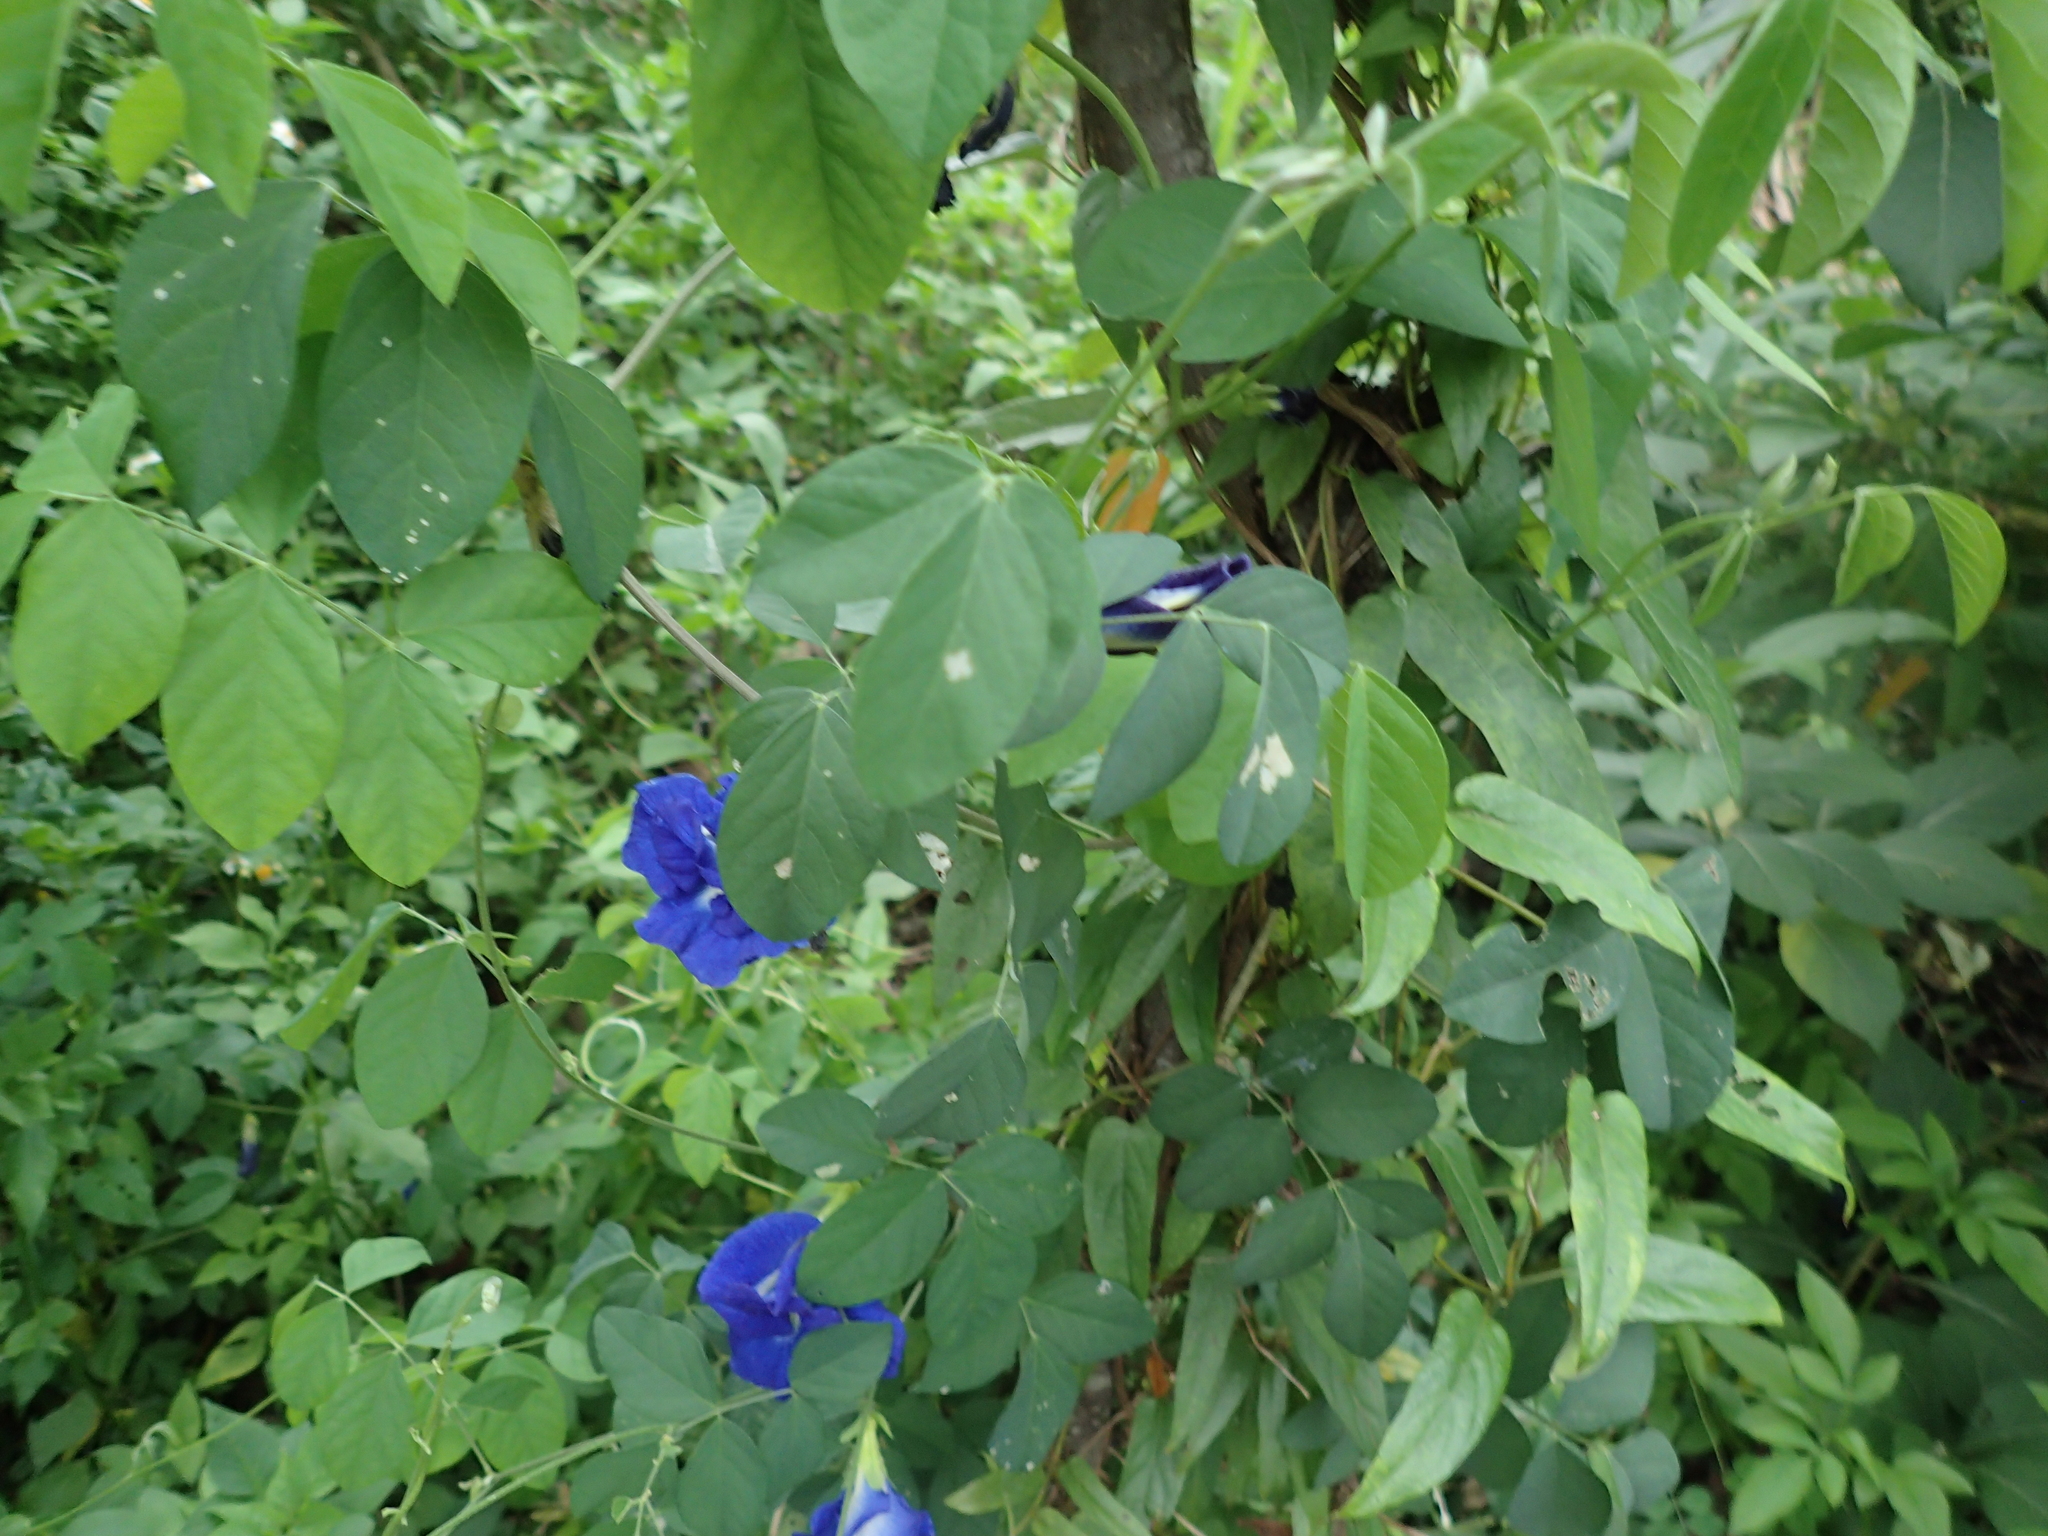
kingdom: Plantae
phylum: Tracheophyta
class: Magnoliopsida
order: Fabales
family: Fabaceae
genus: Clitoria
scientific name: Clitoria ternatea
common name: Asian pigeonwings
